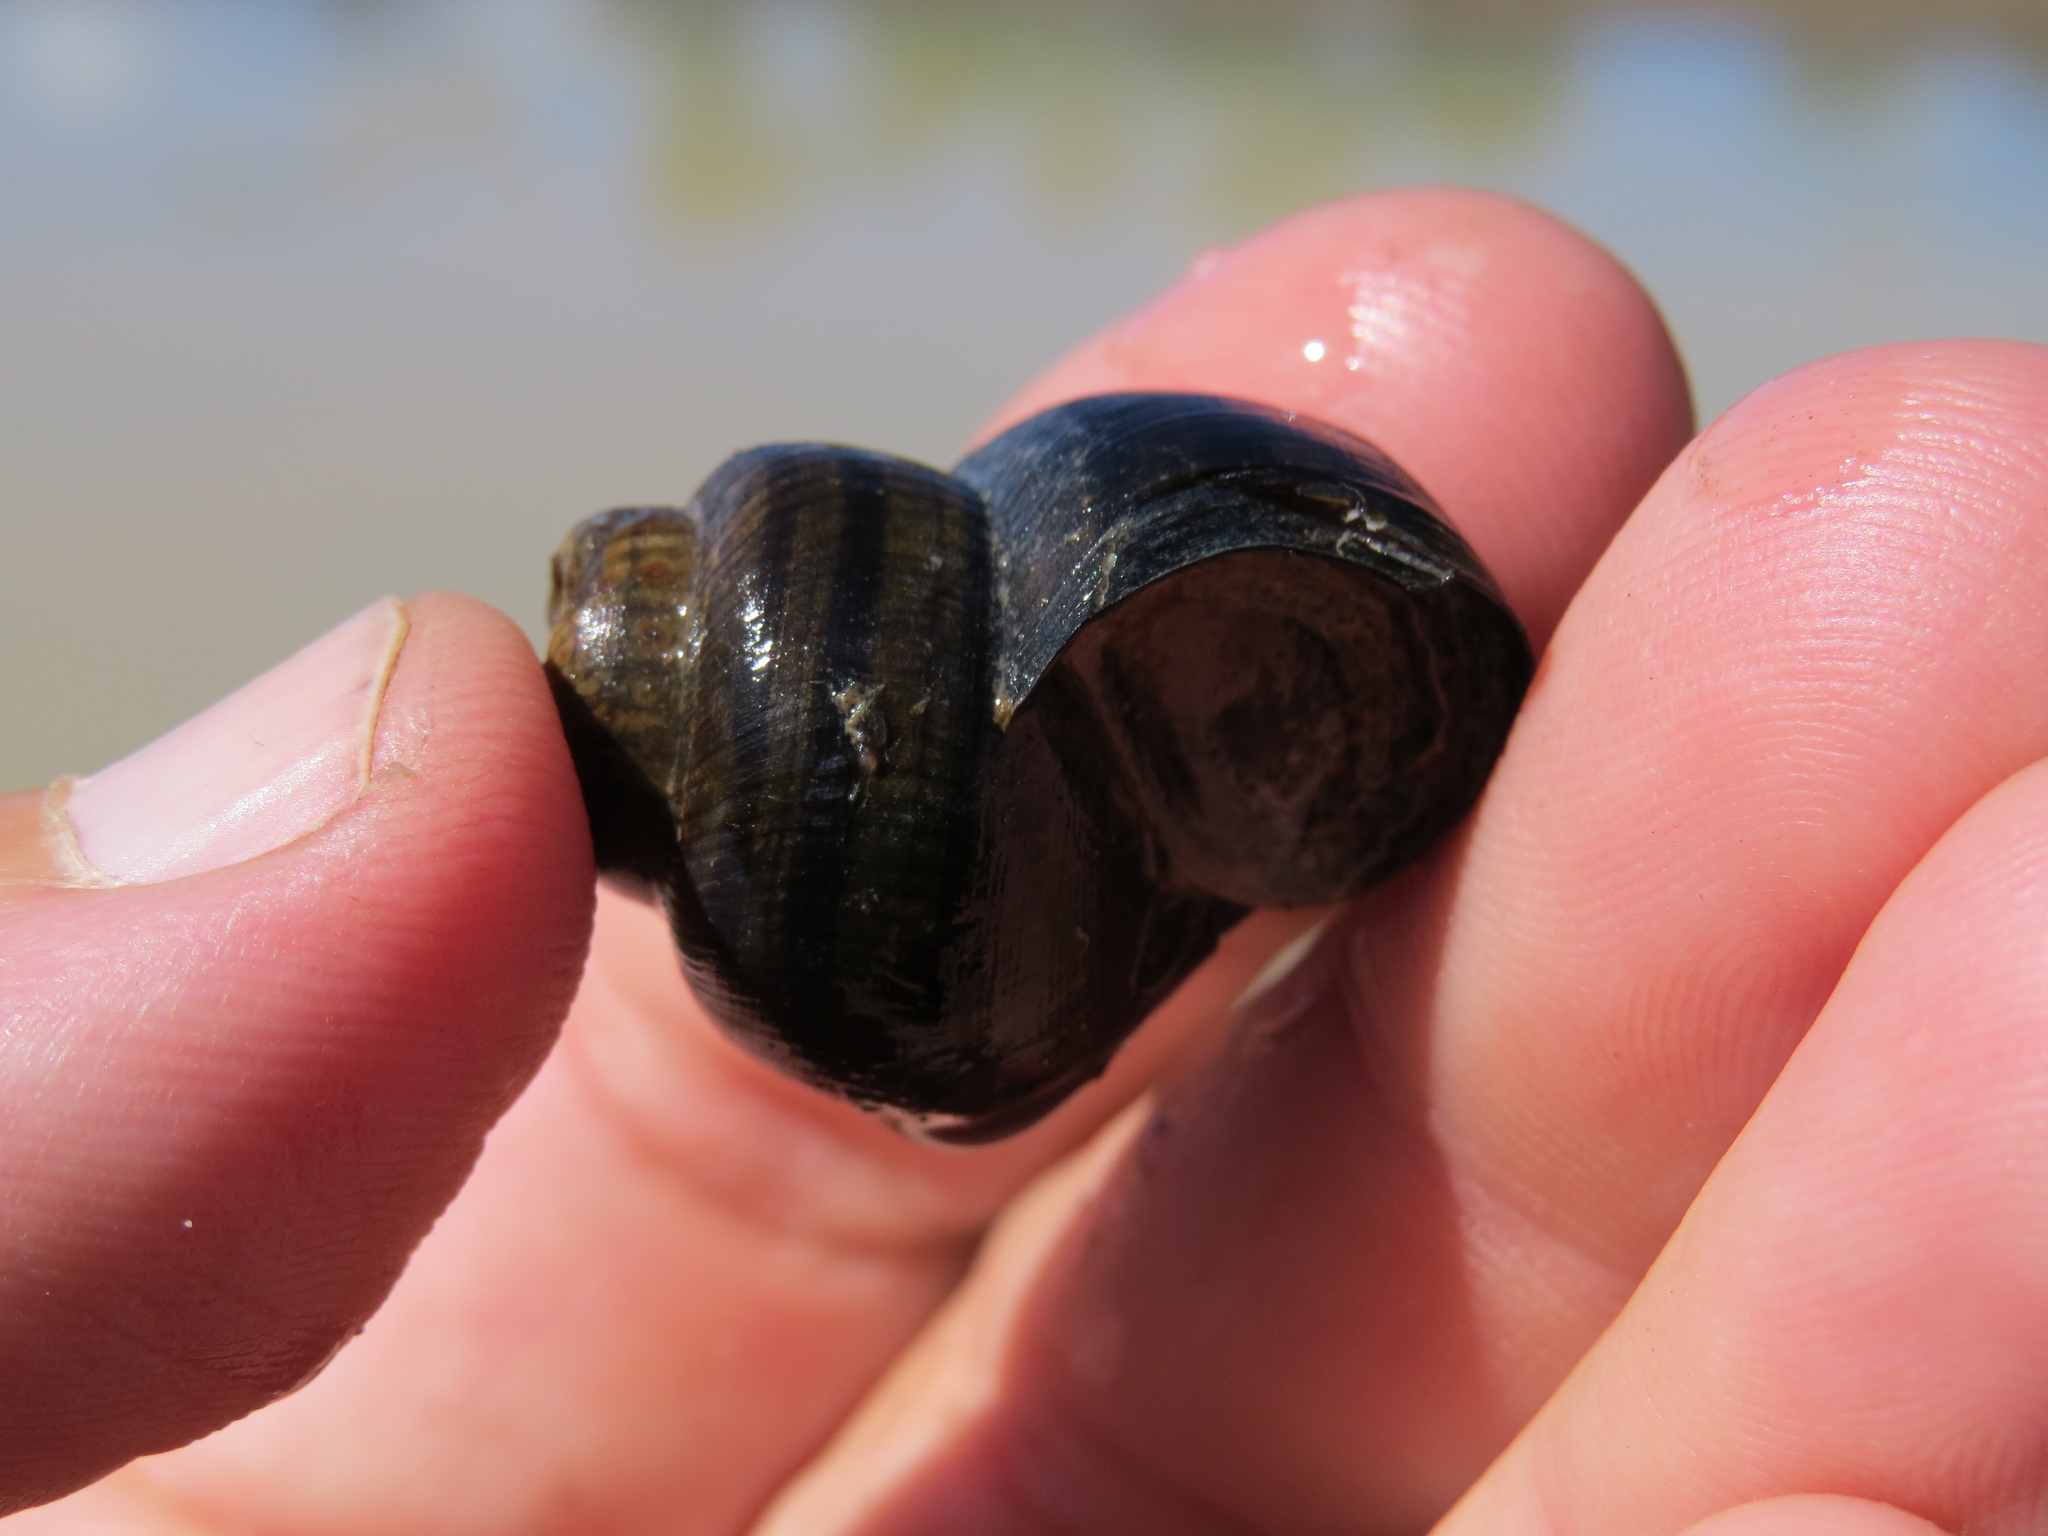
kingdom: Animalia
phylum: Mollusca
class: Gastropoda
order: Architaenioglossa
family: Viviparidae
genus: Notopala
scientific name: Notopala kingi
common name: King's river snail
